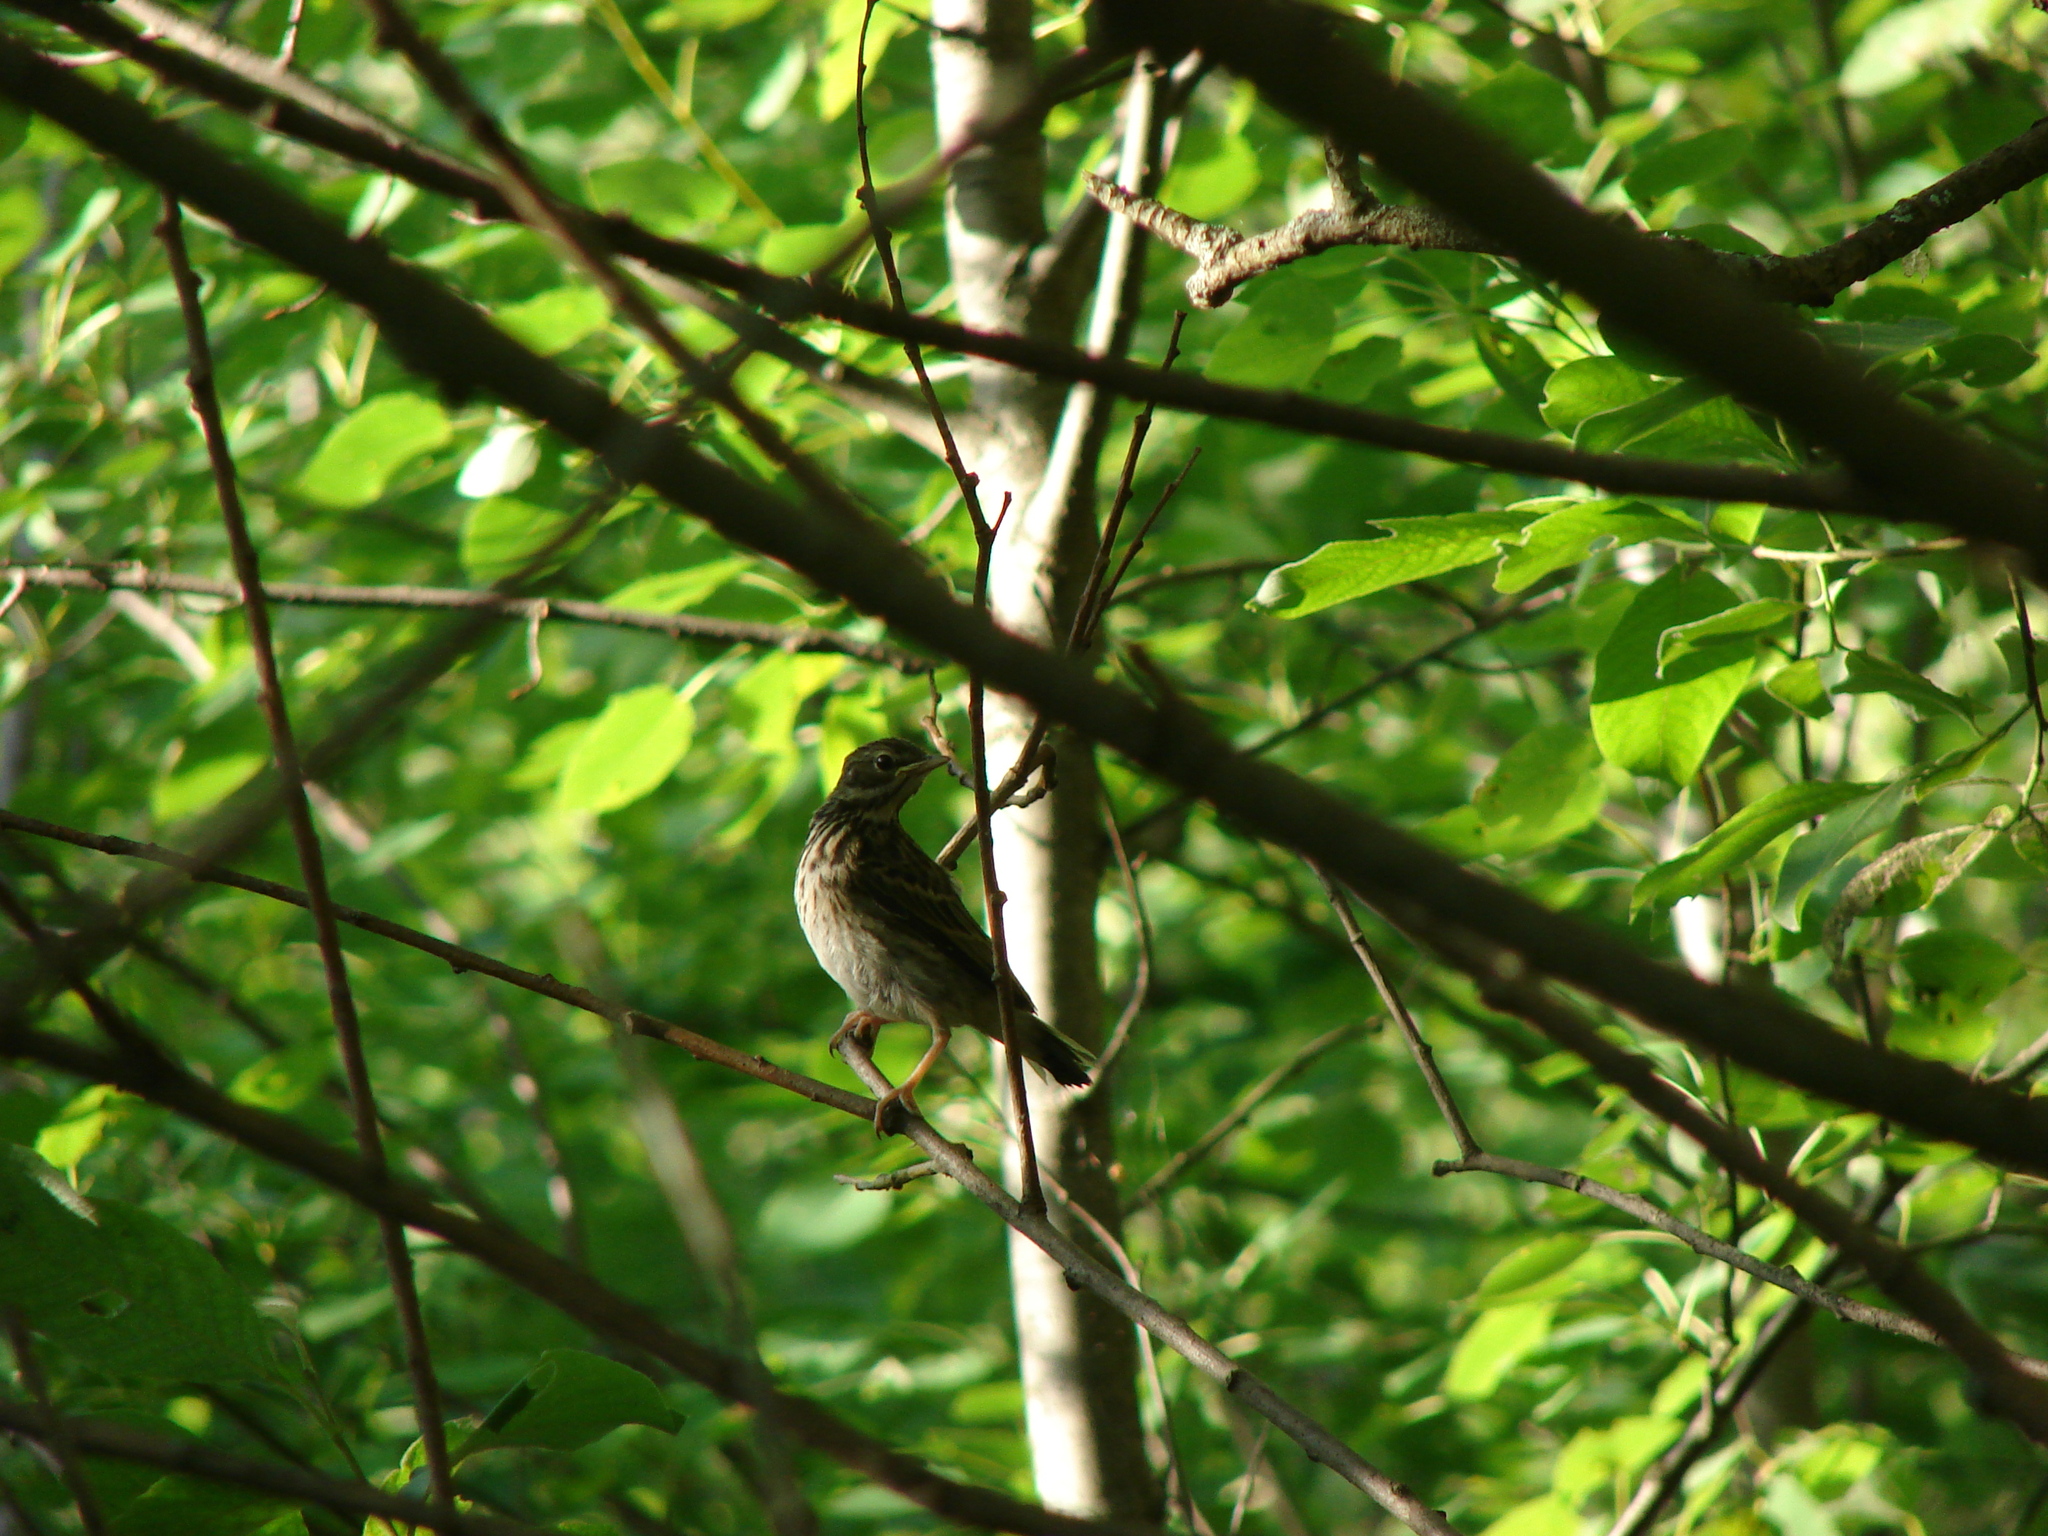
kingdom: Animalia
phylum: Chordata
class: Aves
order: Passeriformes
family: Motacillidae
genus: Anthus
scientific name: Anthus trivialis
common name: Tree pipit
